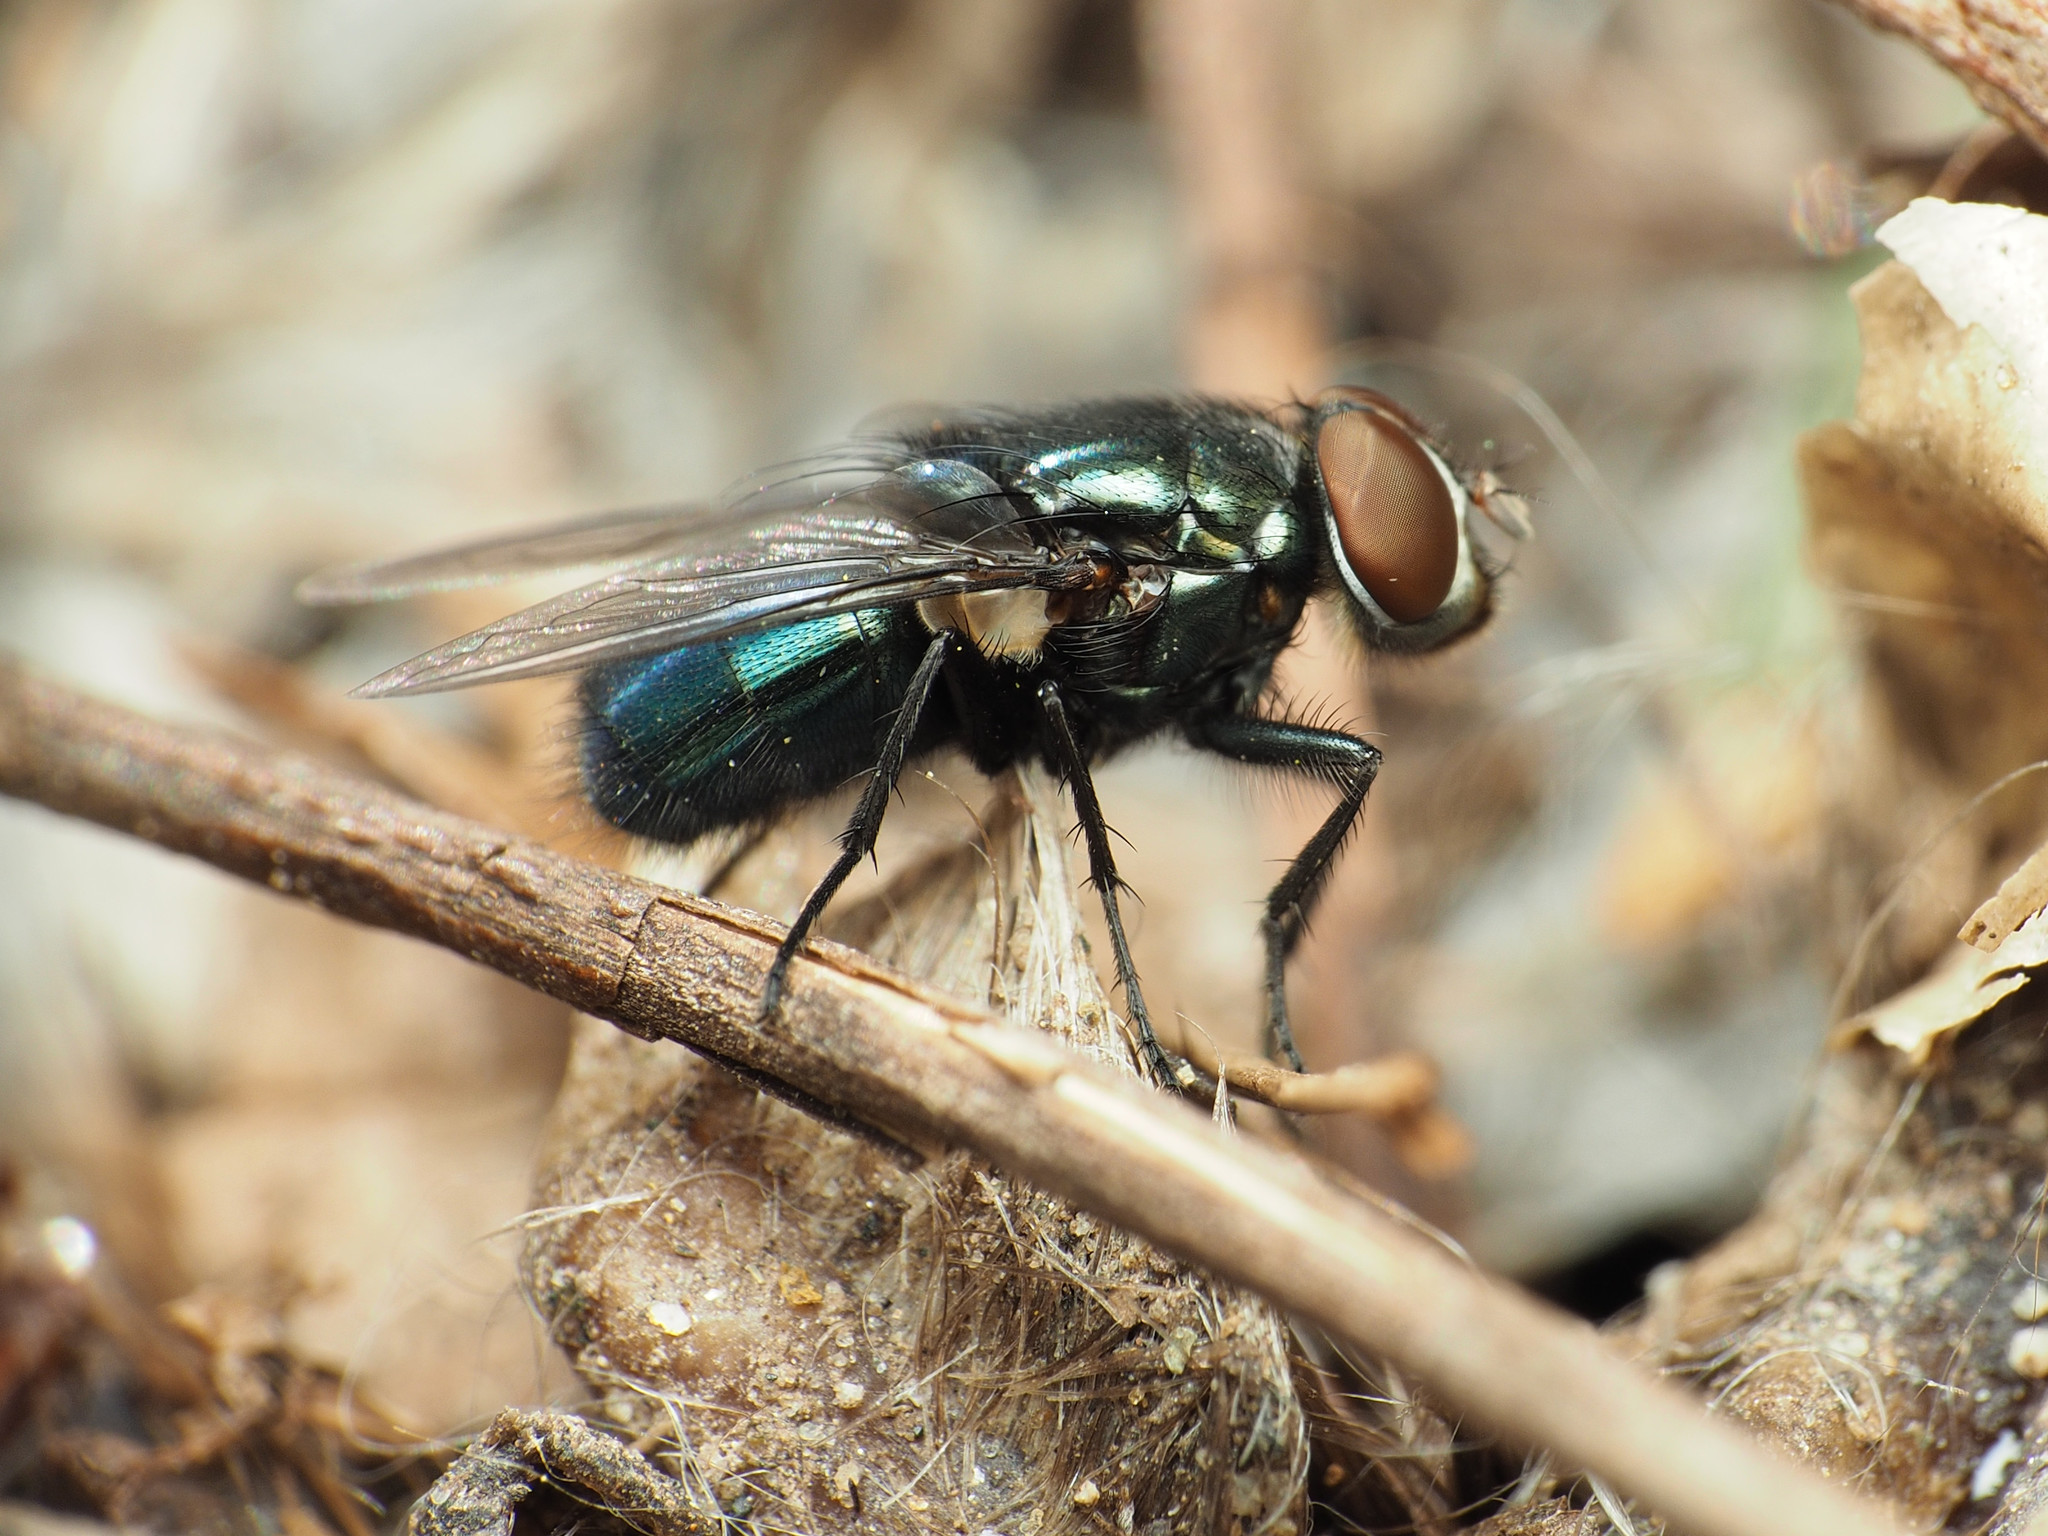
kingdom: Animalia
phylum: Arthropoda
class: Insecta
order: Diptera
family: Calliphoridae
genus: Phormia
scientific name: Phormia regina
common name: Black blow fly
